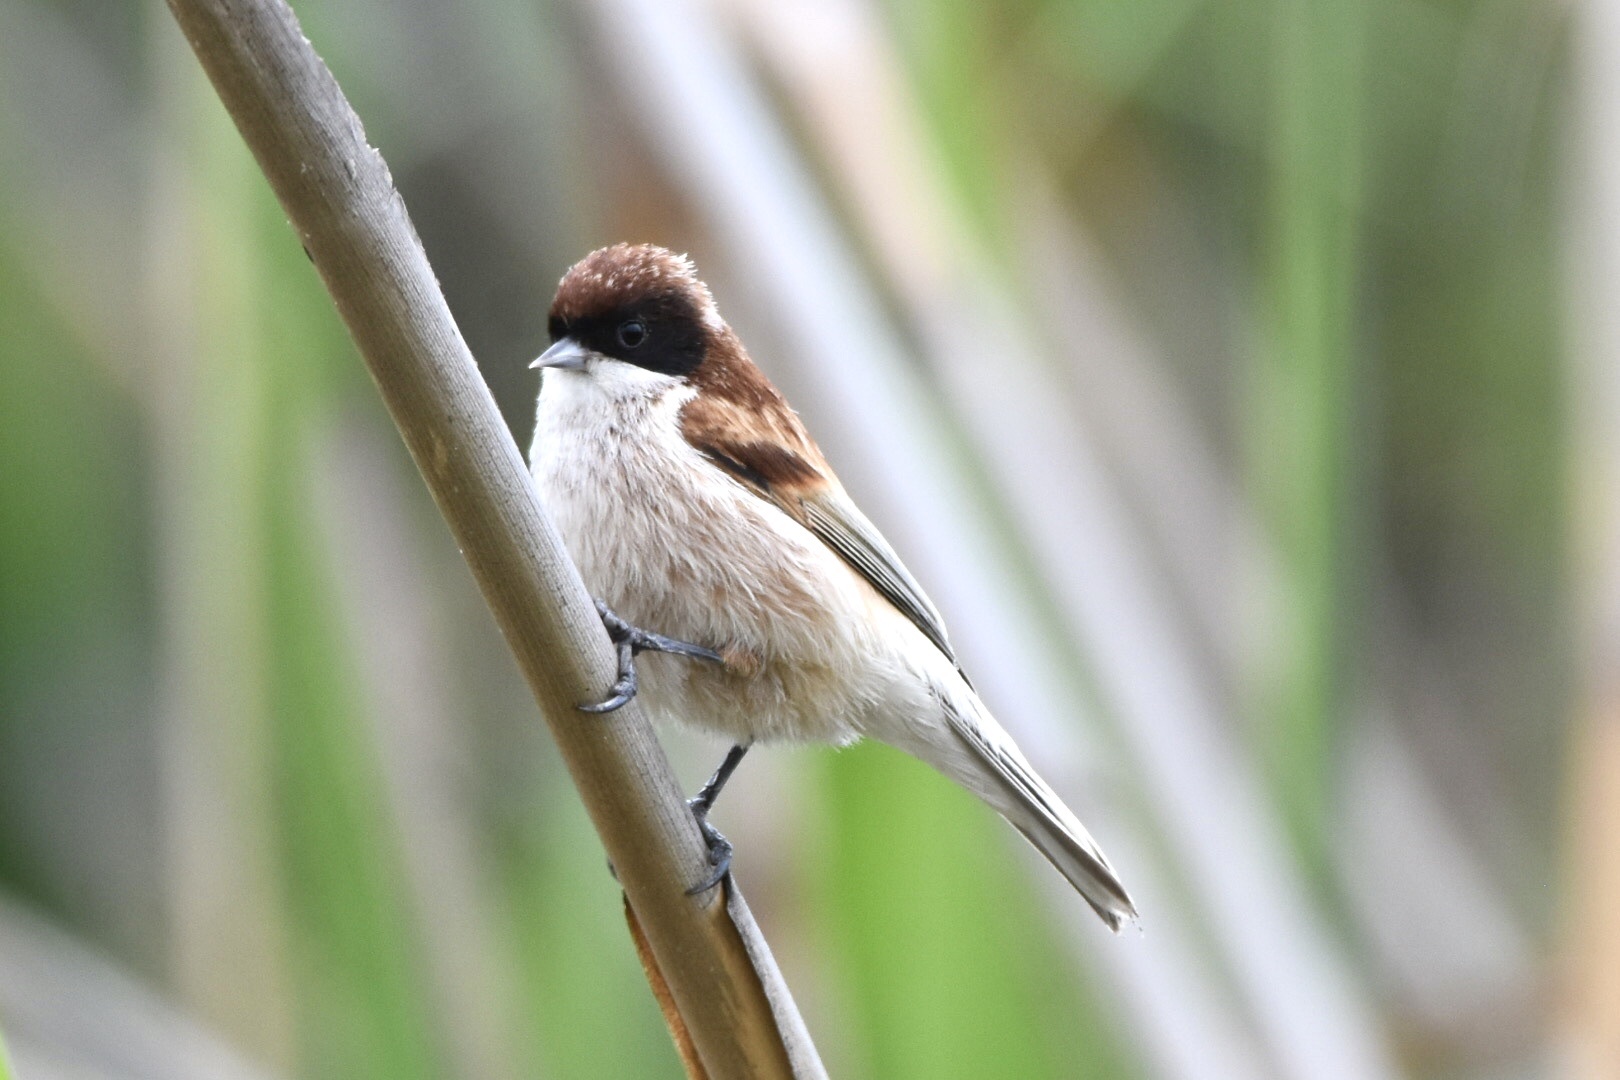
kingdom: Animalia
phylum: Chordata
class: Aves
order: Passeriformes
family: Remizidae
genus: Remiz
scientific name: Remiz pendulinus
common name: Eurasian penduline tit
